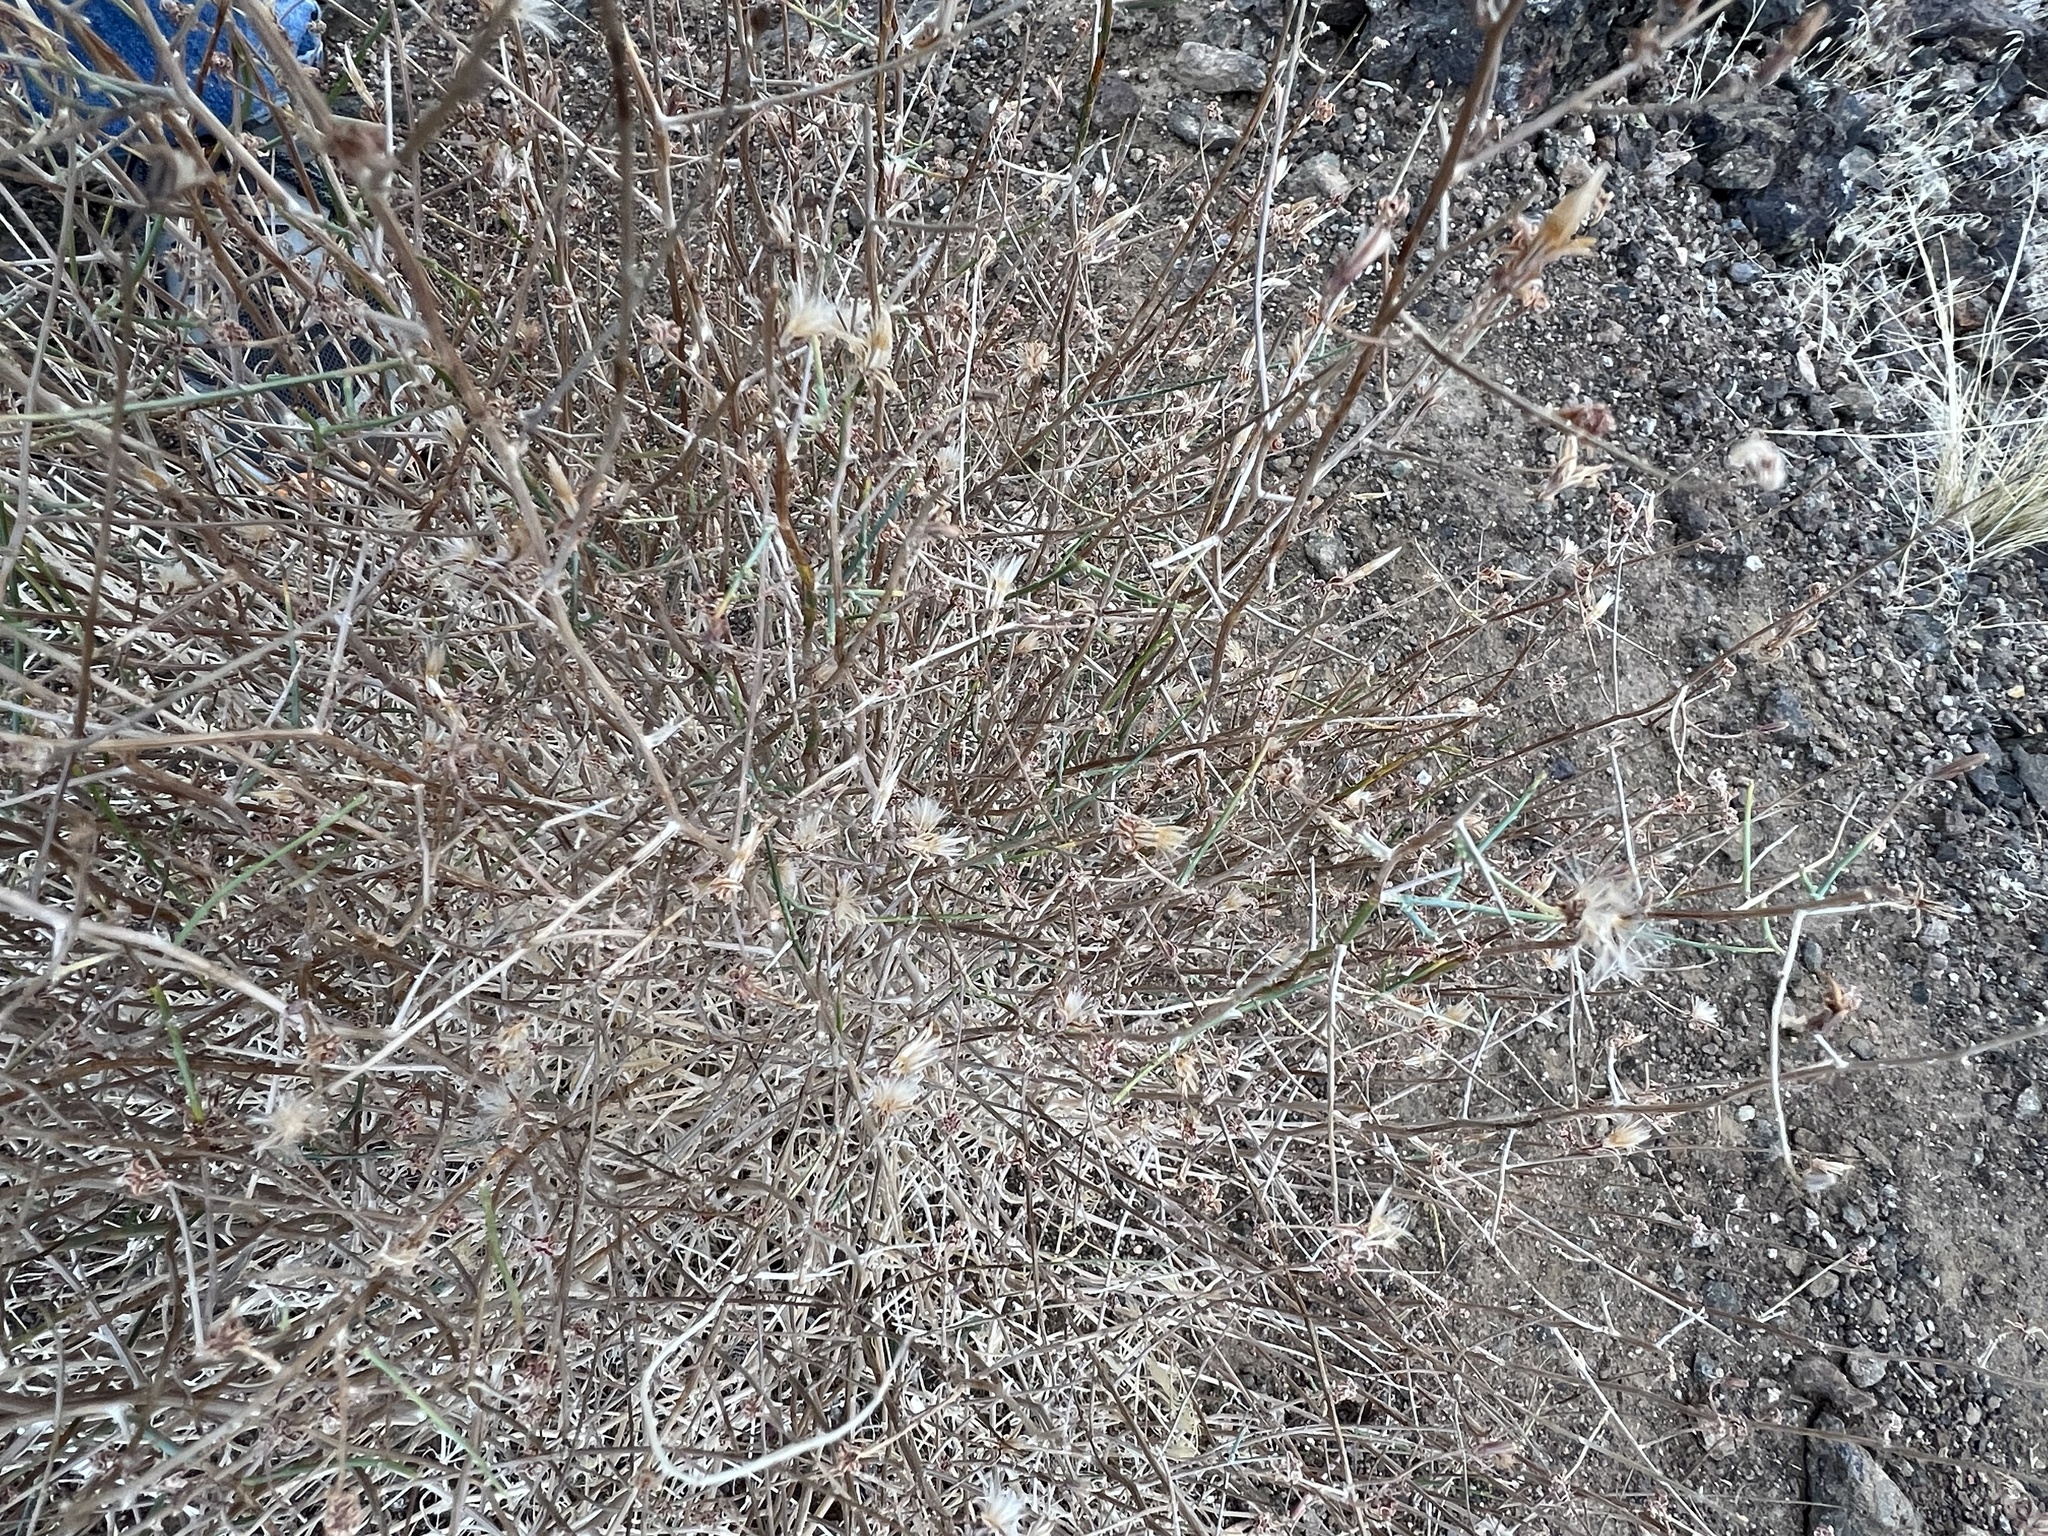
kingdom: Plantae
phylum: Tracheophyta
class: Magnoliopsida
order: Asterales
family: Asteraceae
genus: Stephanomeria
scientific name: Stephanomeria pauciflora
